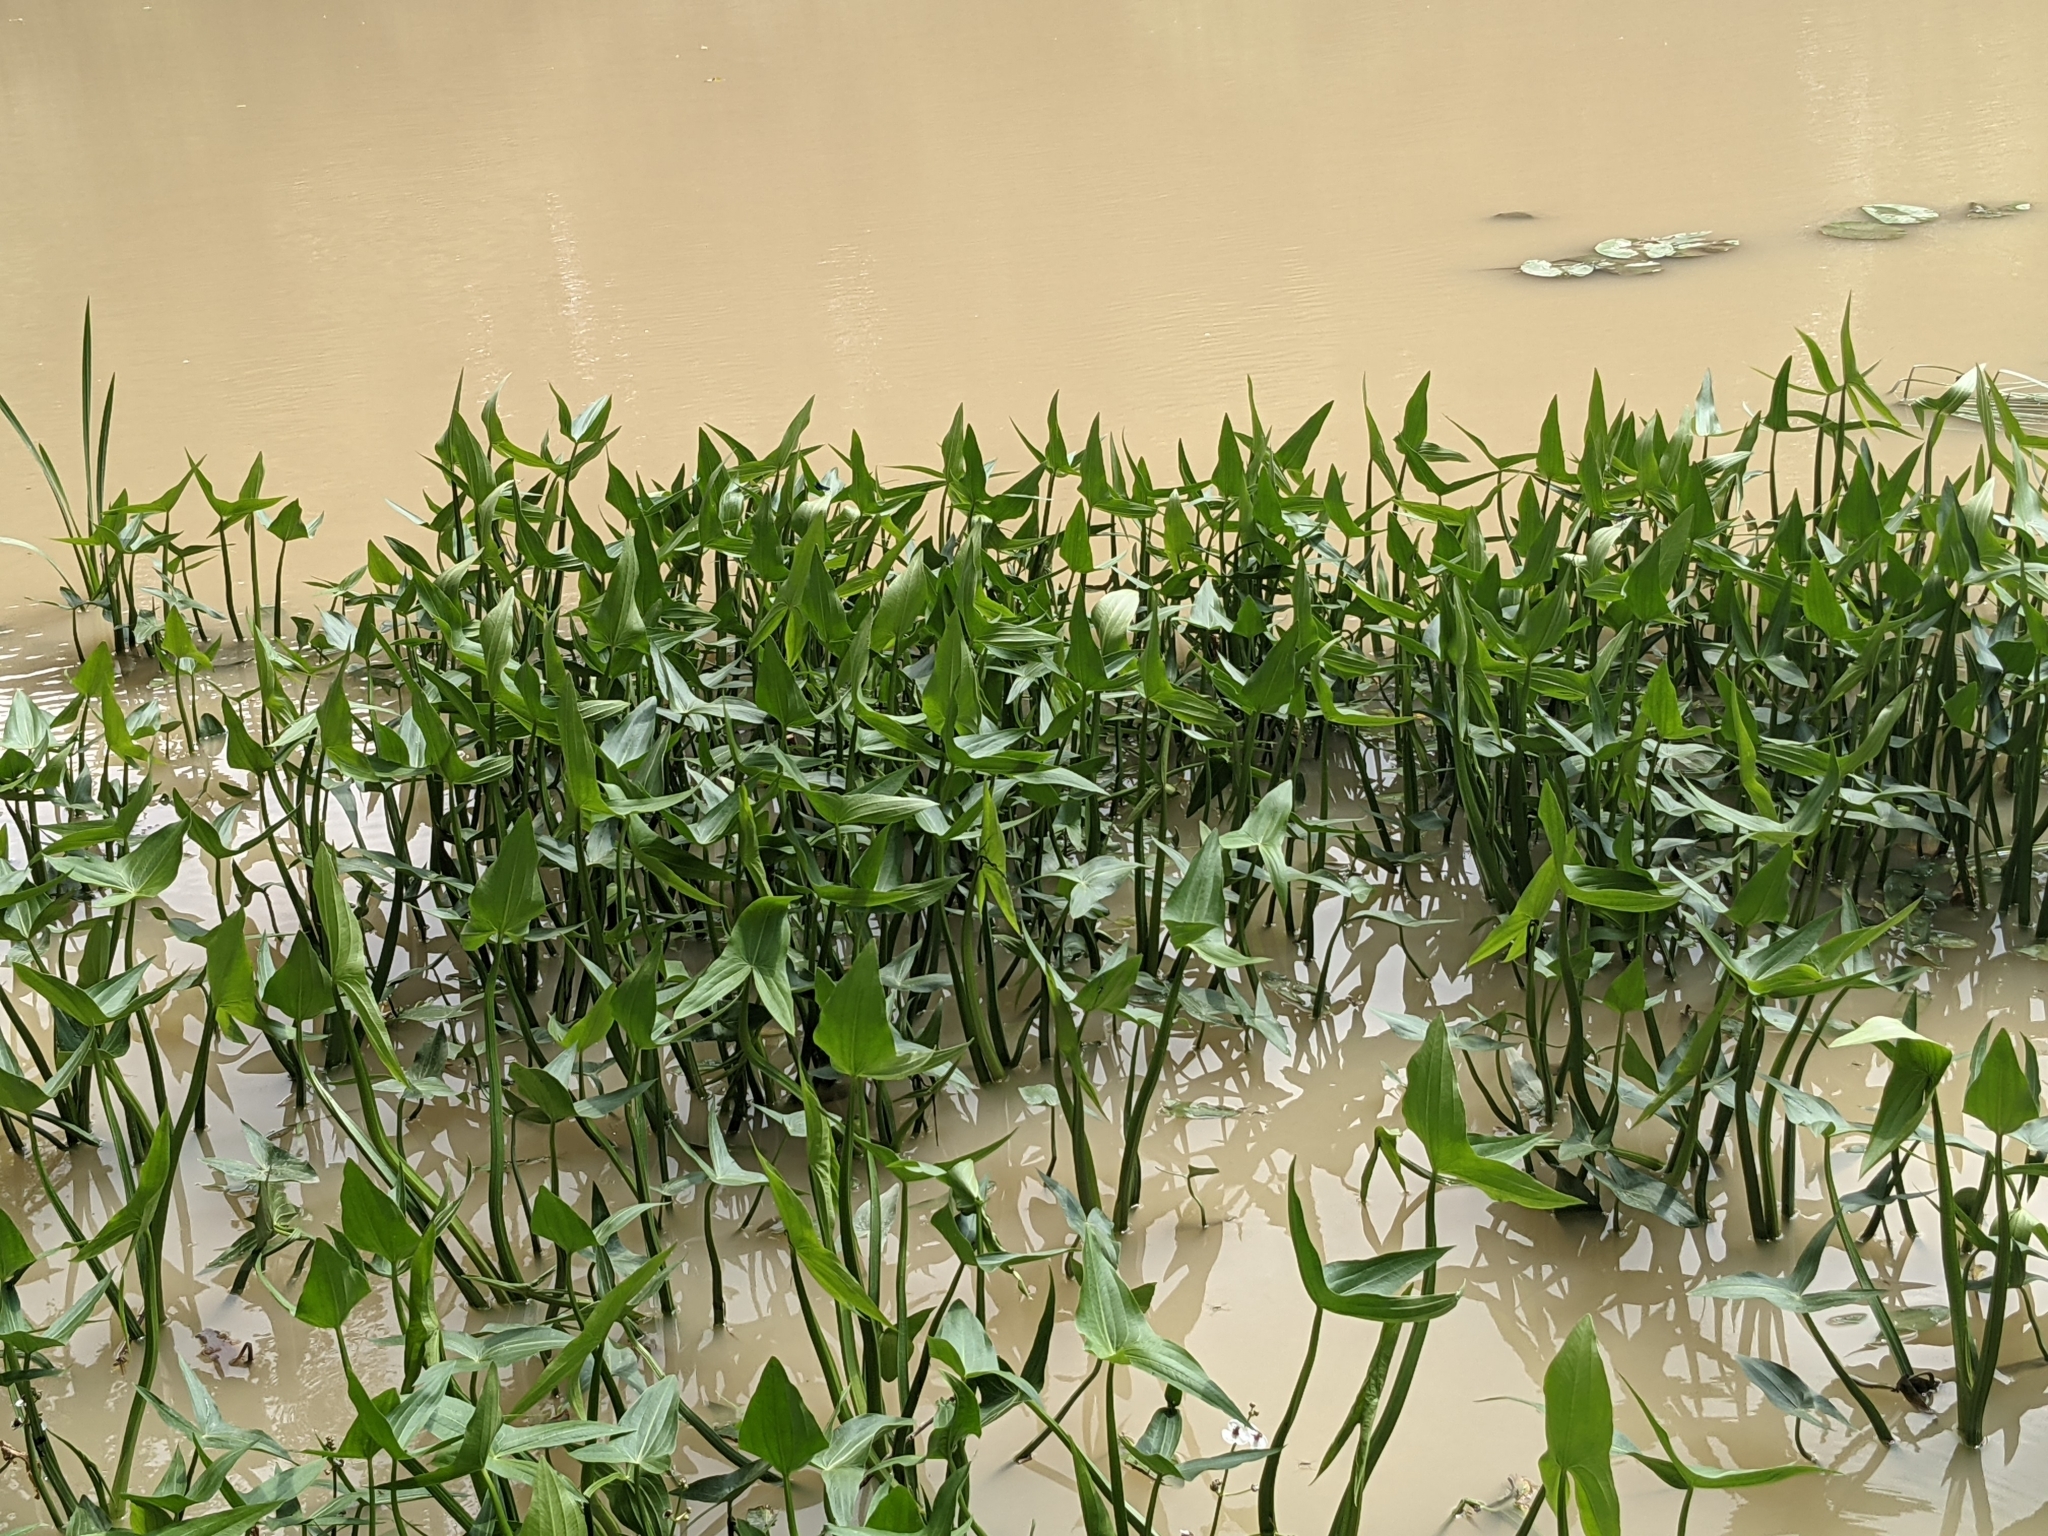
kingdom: Plantae
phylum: Tracheophyta
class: Liliopsida
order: Alismatales
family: Alismataceae
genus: Sagittaria
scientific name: Sagittaria sagittifolia
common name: Arrowhead
